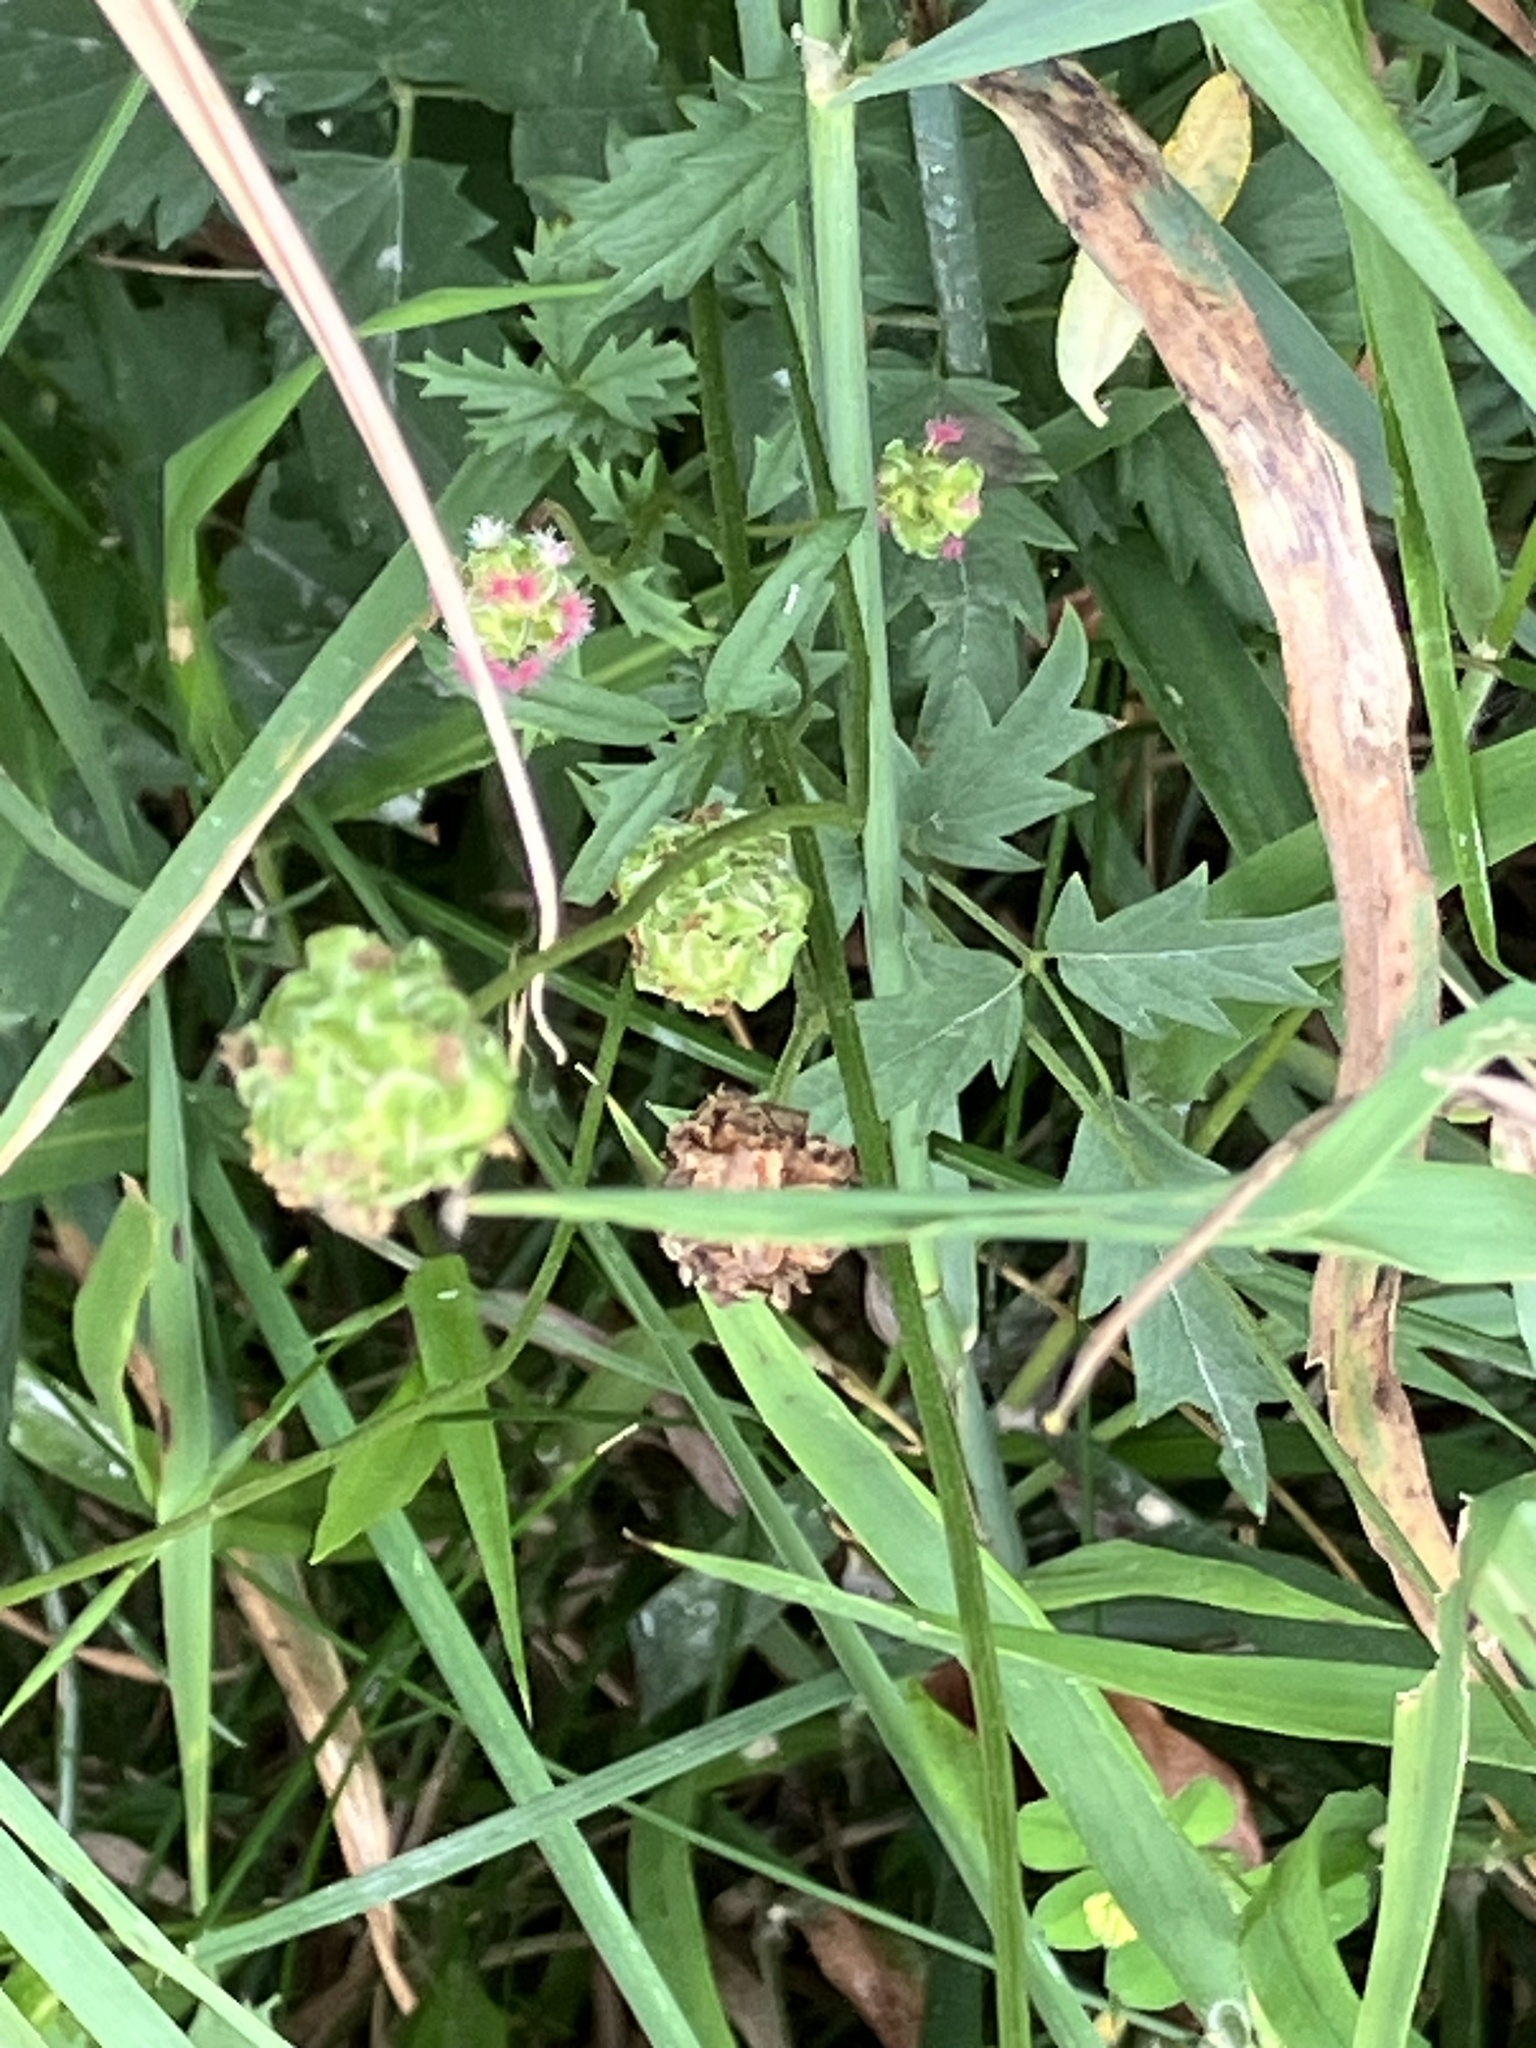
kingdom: Plantae
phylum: Tracheophyta
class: Magnoliopsida
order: Rosales
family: Rosaceae
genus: Poterium
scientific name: Poterium sanguisorba
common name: Salad burnet
